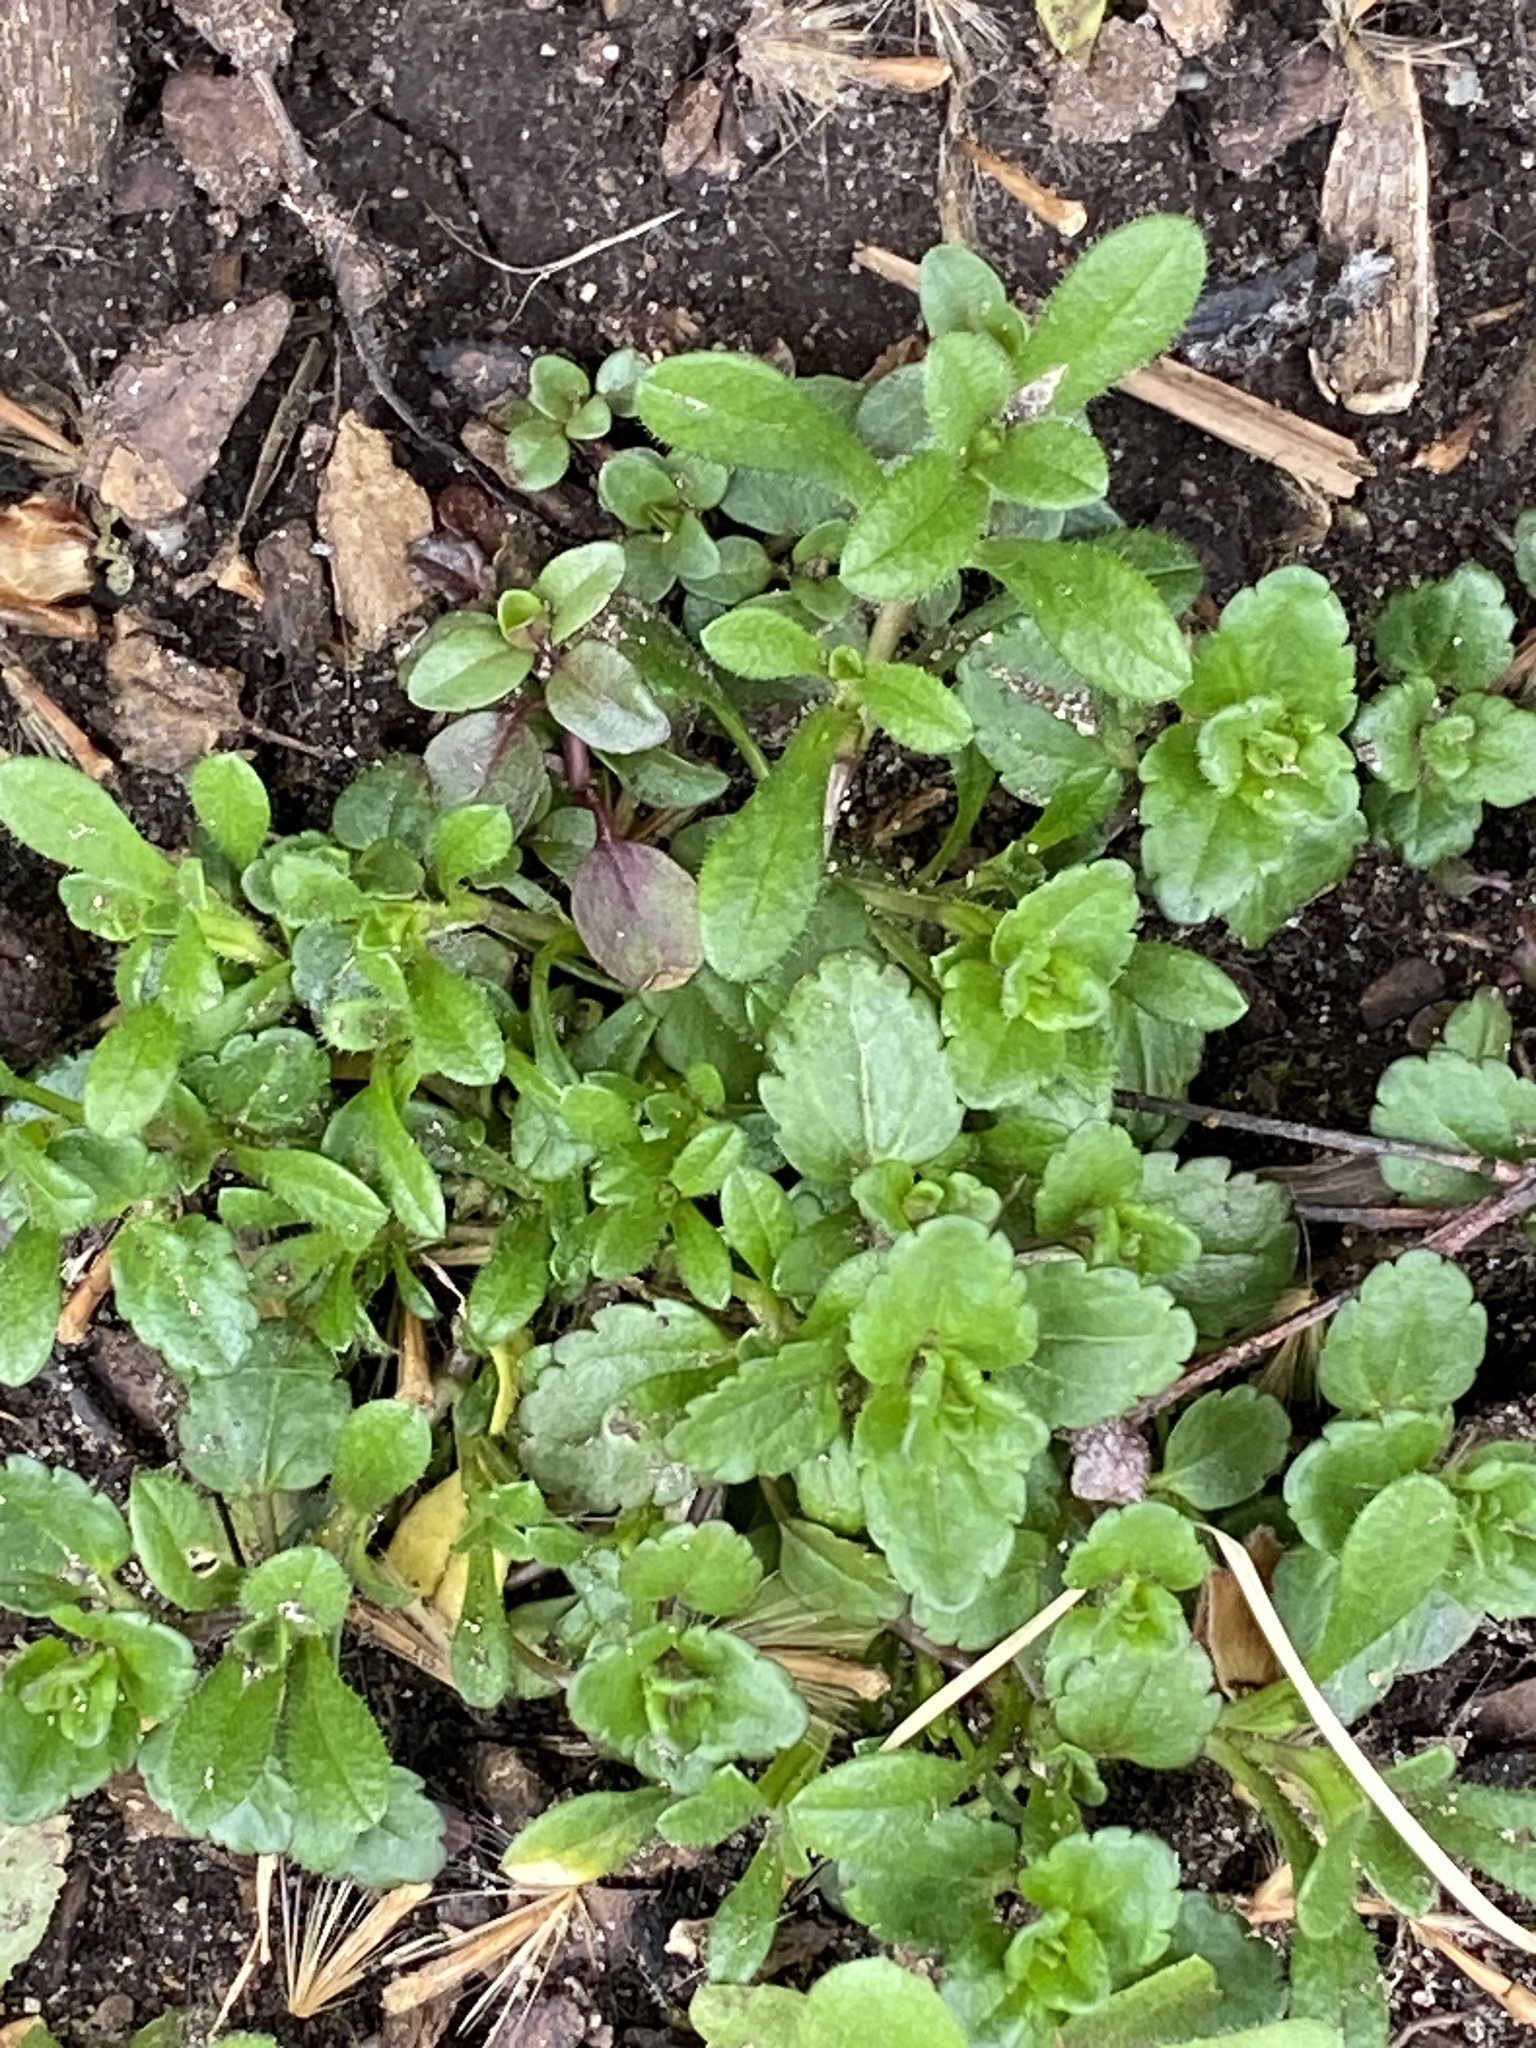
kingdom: Plantae
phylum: Tracheophyta
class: Magnoliopsida
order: Lamiales
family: Plantaginaceae
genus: Veronica
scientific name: Veronica persica
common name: Common field-speedwell
